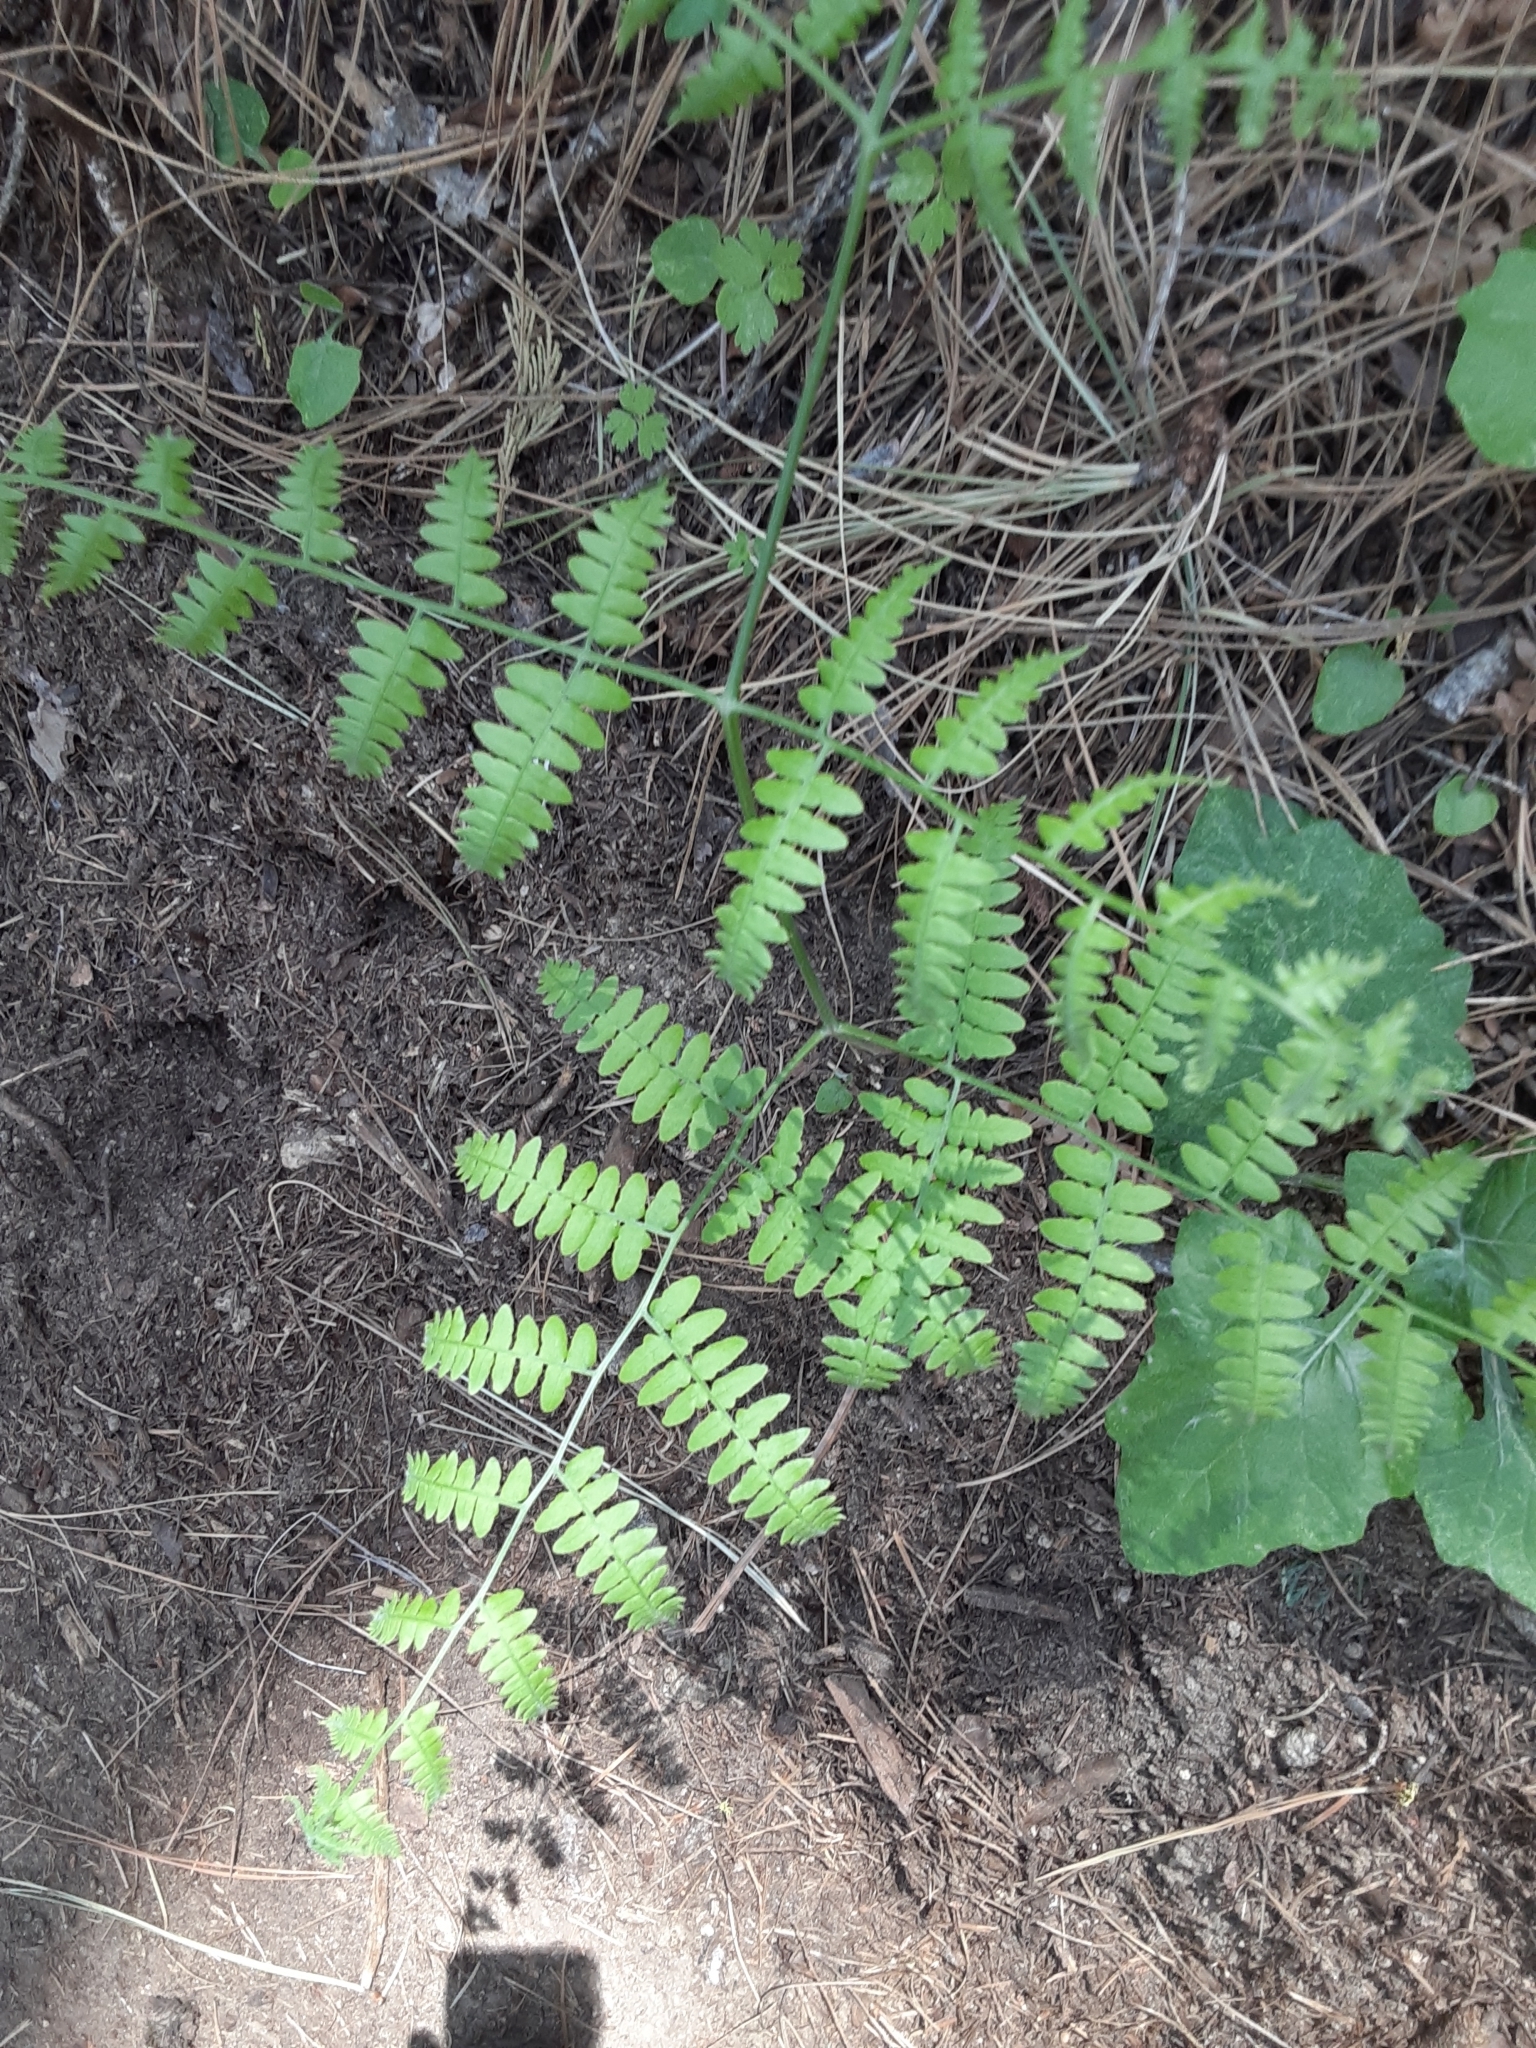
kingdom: Plantae
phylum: Tracheophyta
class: Polypodiopsida
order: Polypodiales
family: Dennstaedtiaceae
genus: Pteridium
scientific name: Pteridium aquilinum
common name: Bracken
